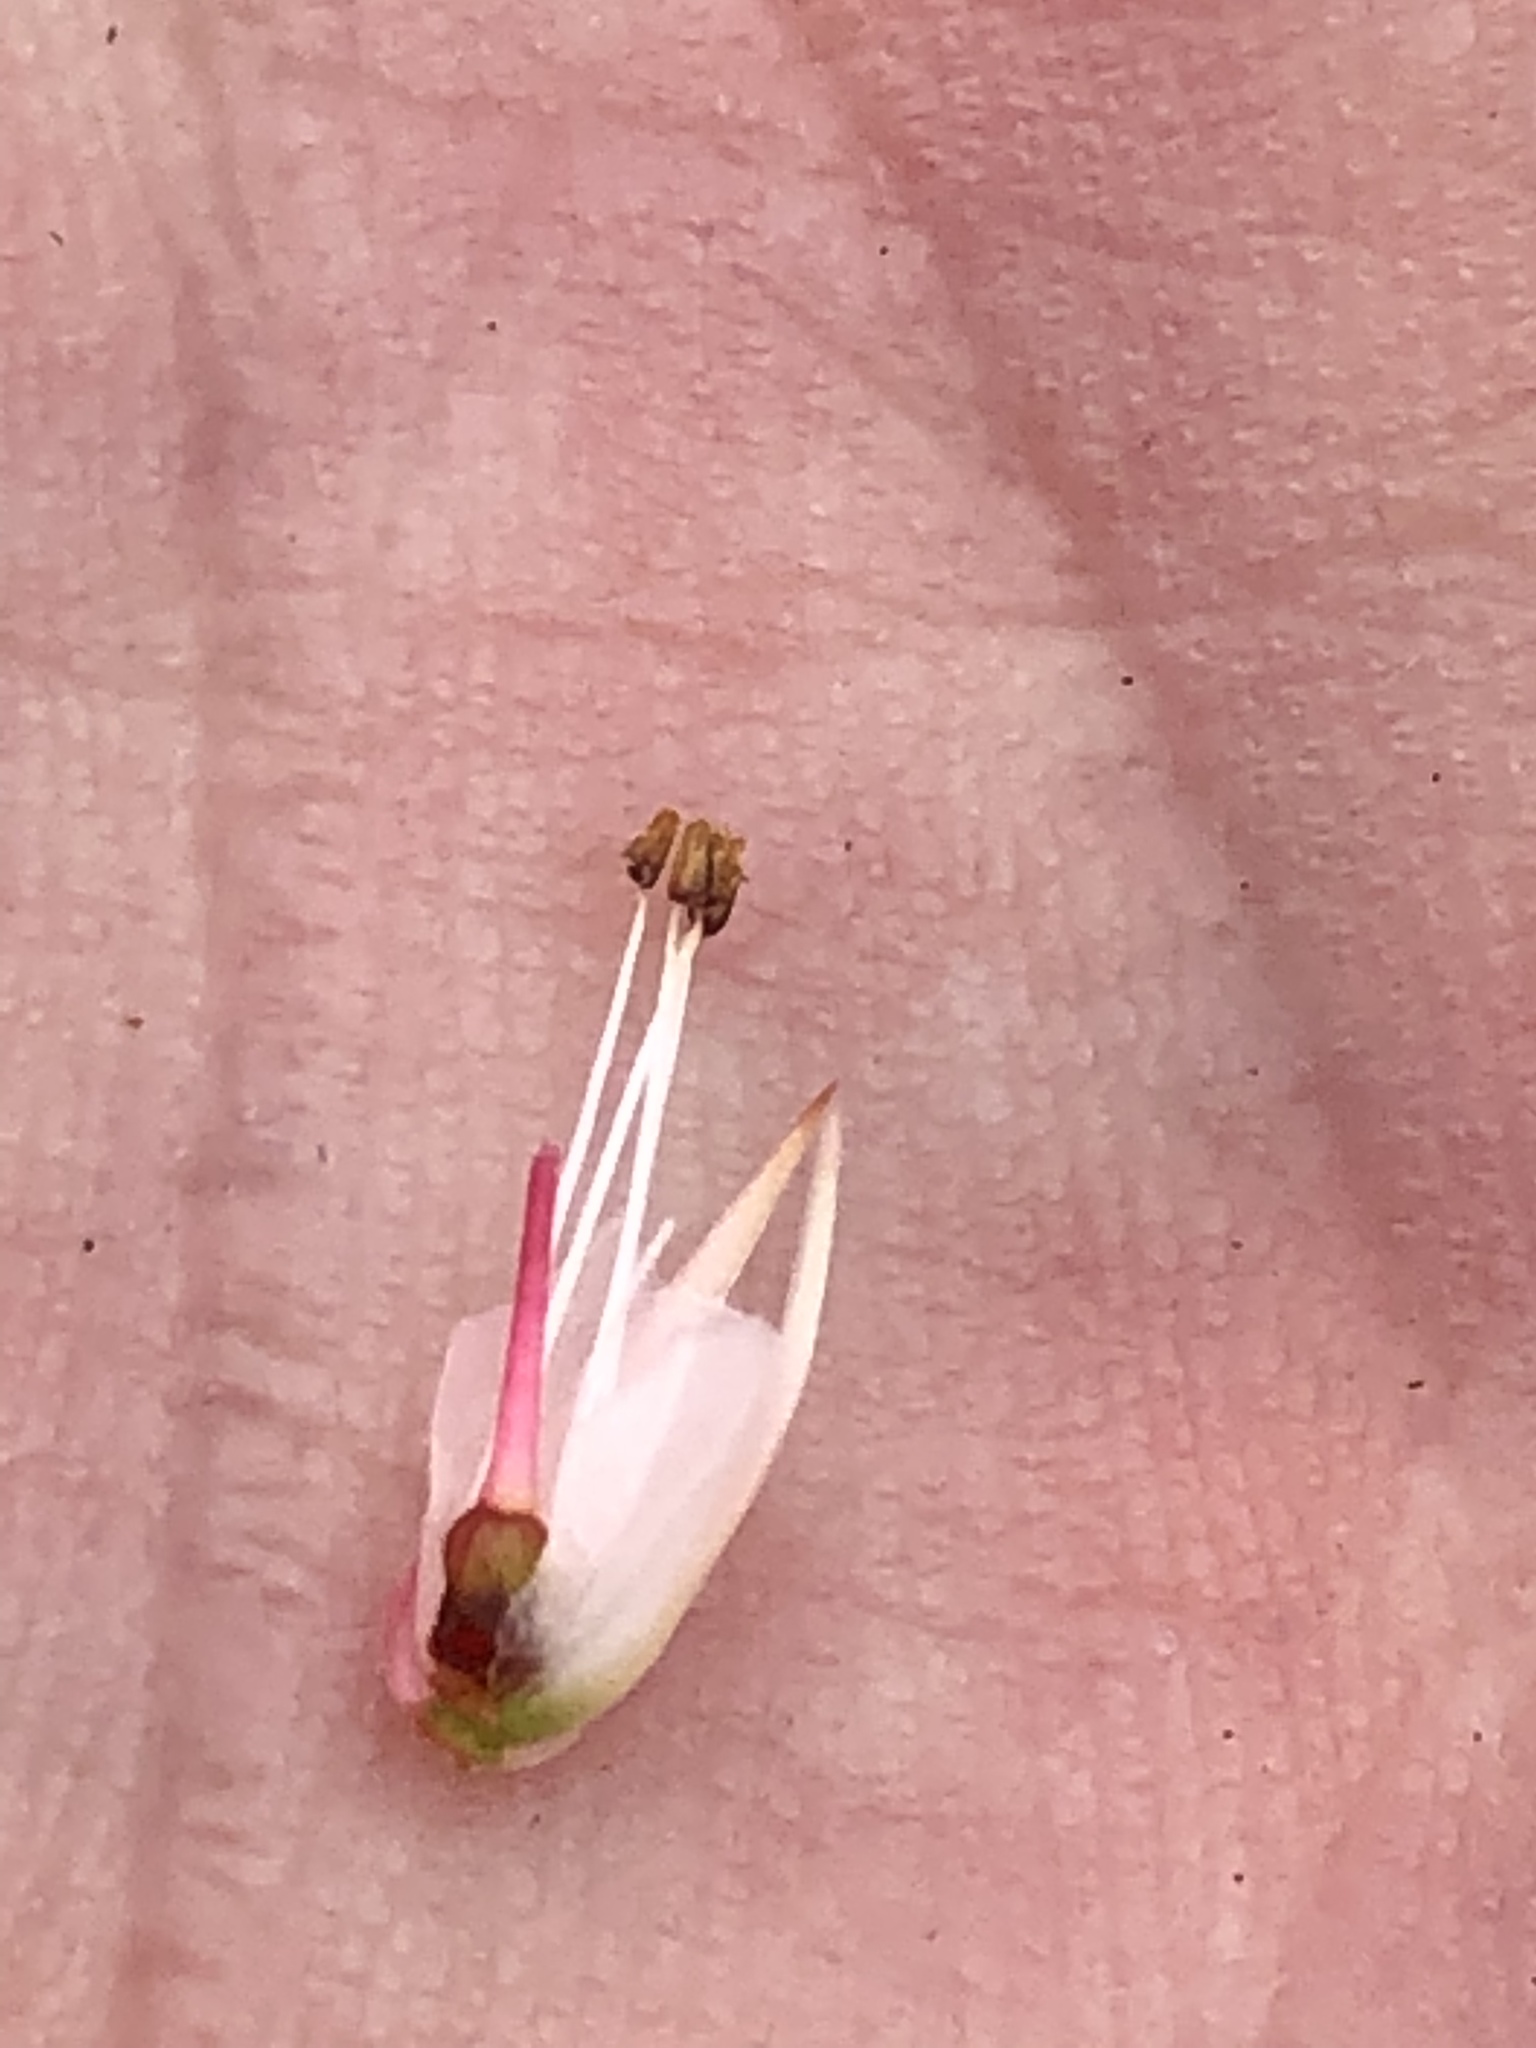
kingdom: Plantae
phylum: Tracheophyta
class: Magnoliopsida
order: Ericales
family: Ericaceae
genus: Erica
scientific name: Erica georgica
